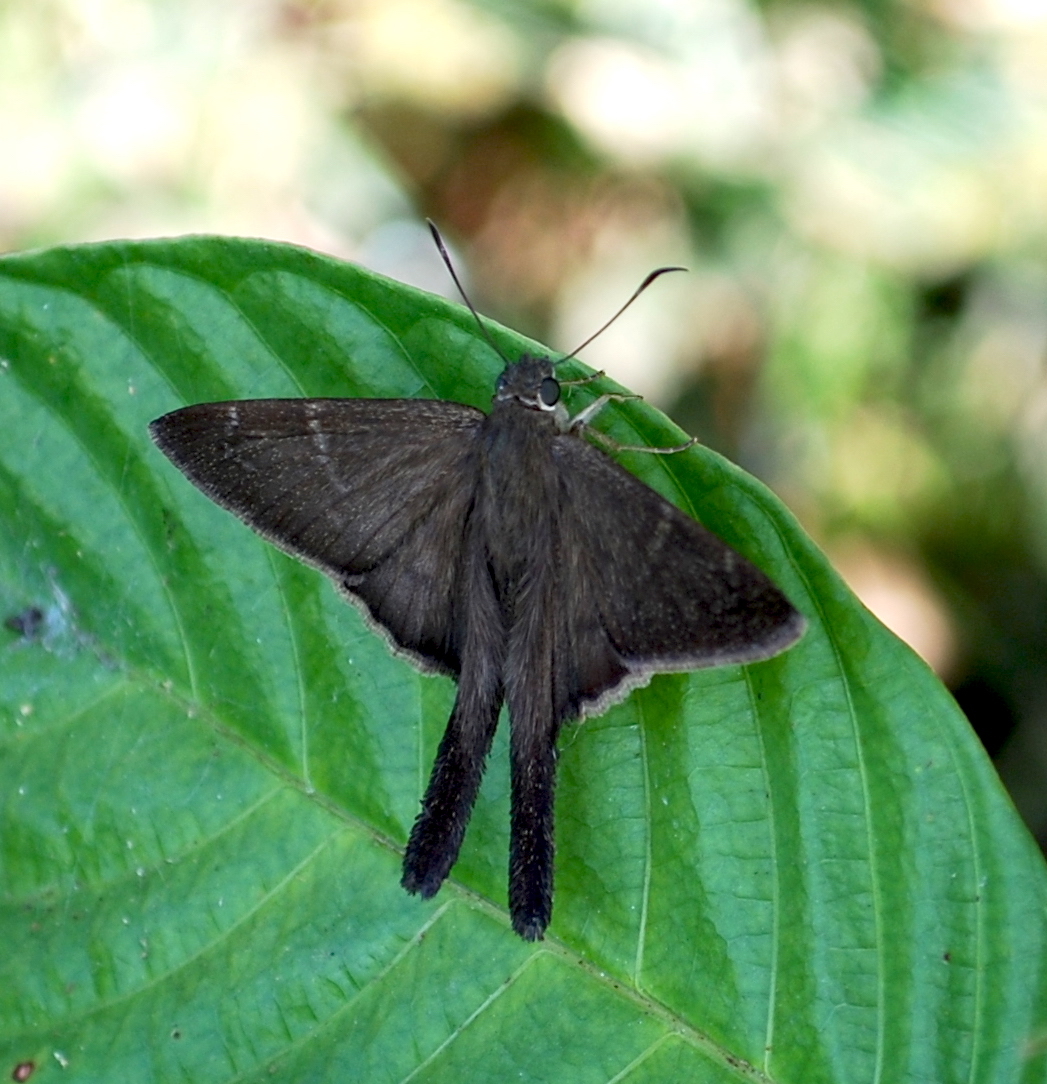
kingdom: Animalia
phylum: Arthropoda
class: Insecta
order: Lepidoptera
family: Hesperiidae
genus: Urbanus
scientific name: Urbanus teleus
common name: Teleus longtail
